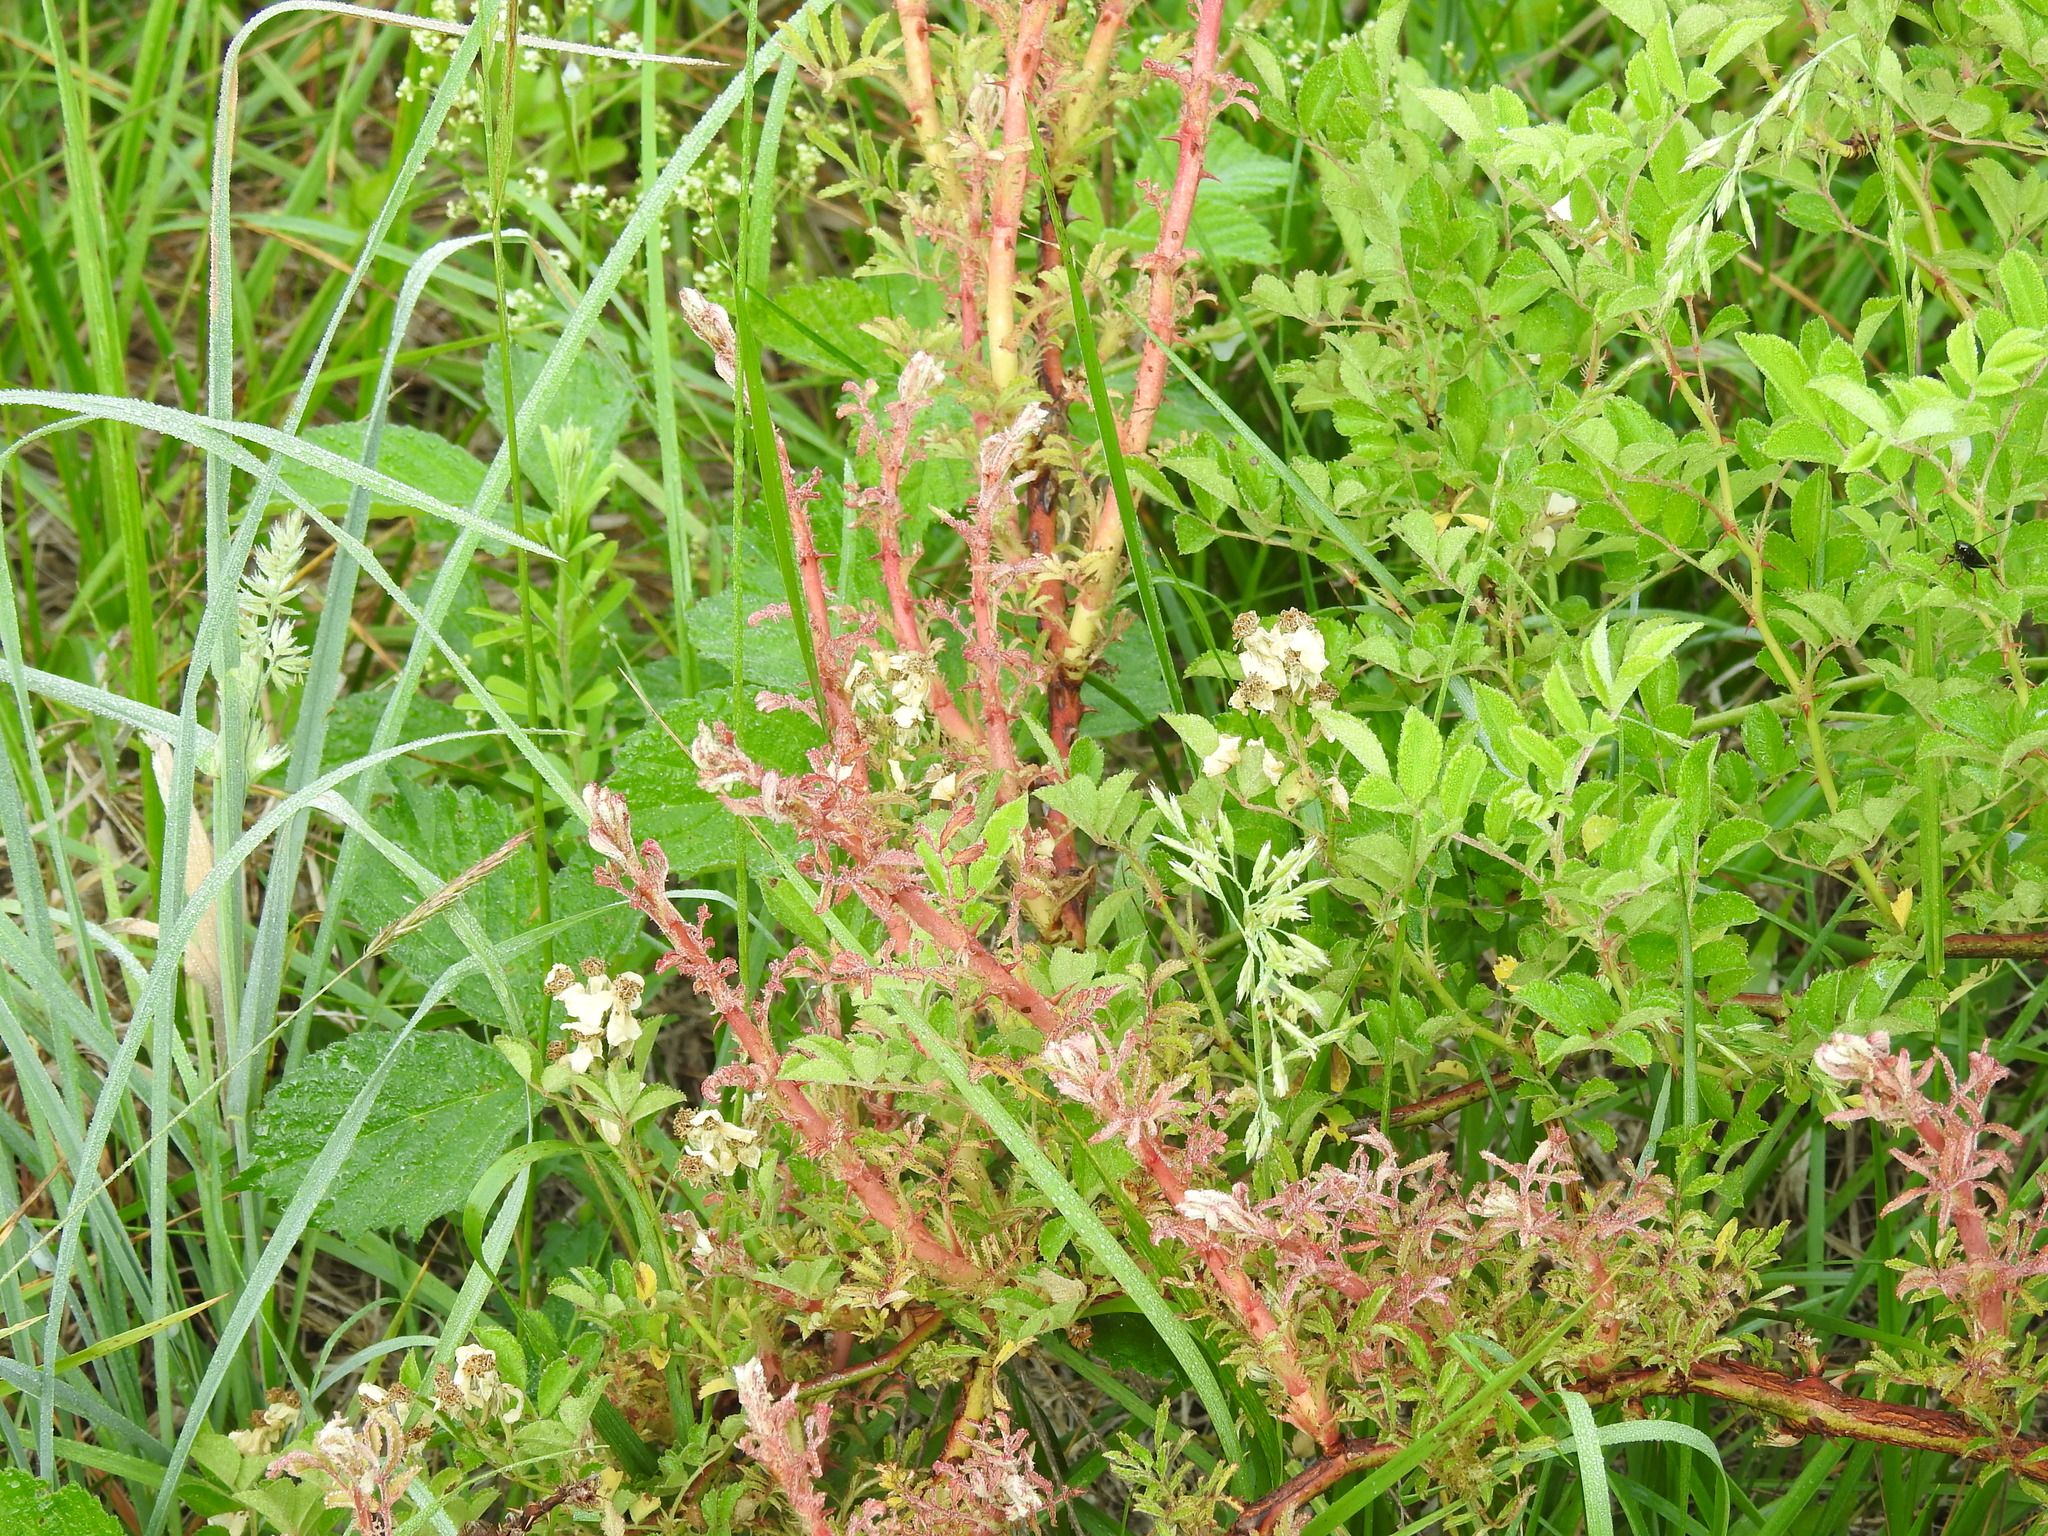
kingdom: Viruses
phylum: Negarnaviricota
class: Ellioviricetes
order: Bunyavirales
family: Fimoviridae
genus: Emaravirus
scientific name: Emaravirus rosae
